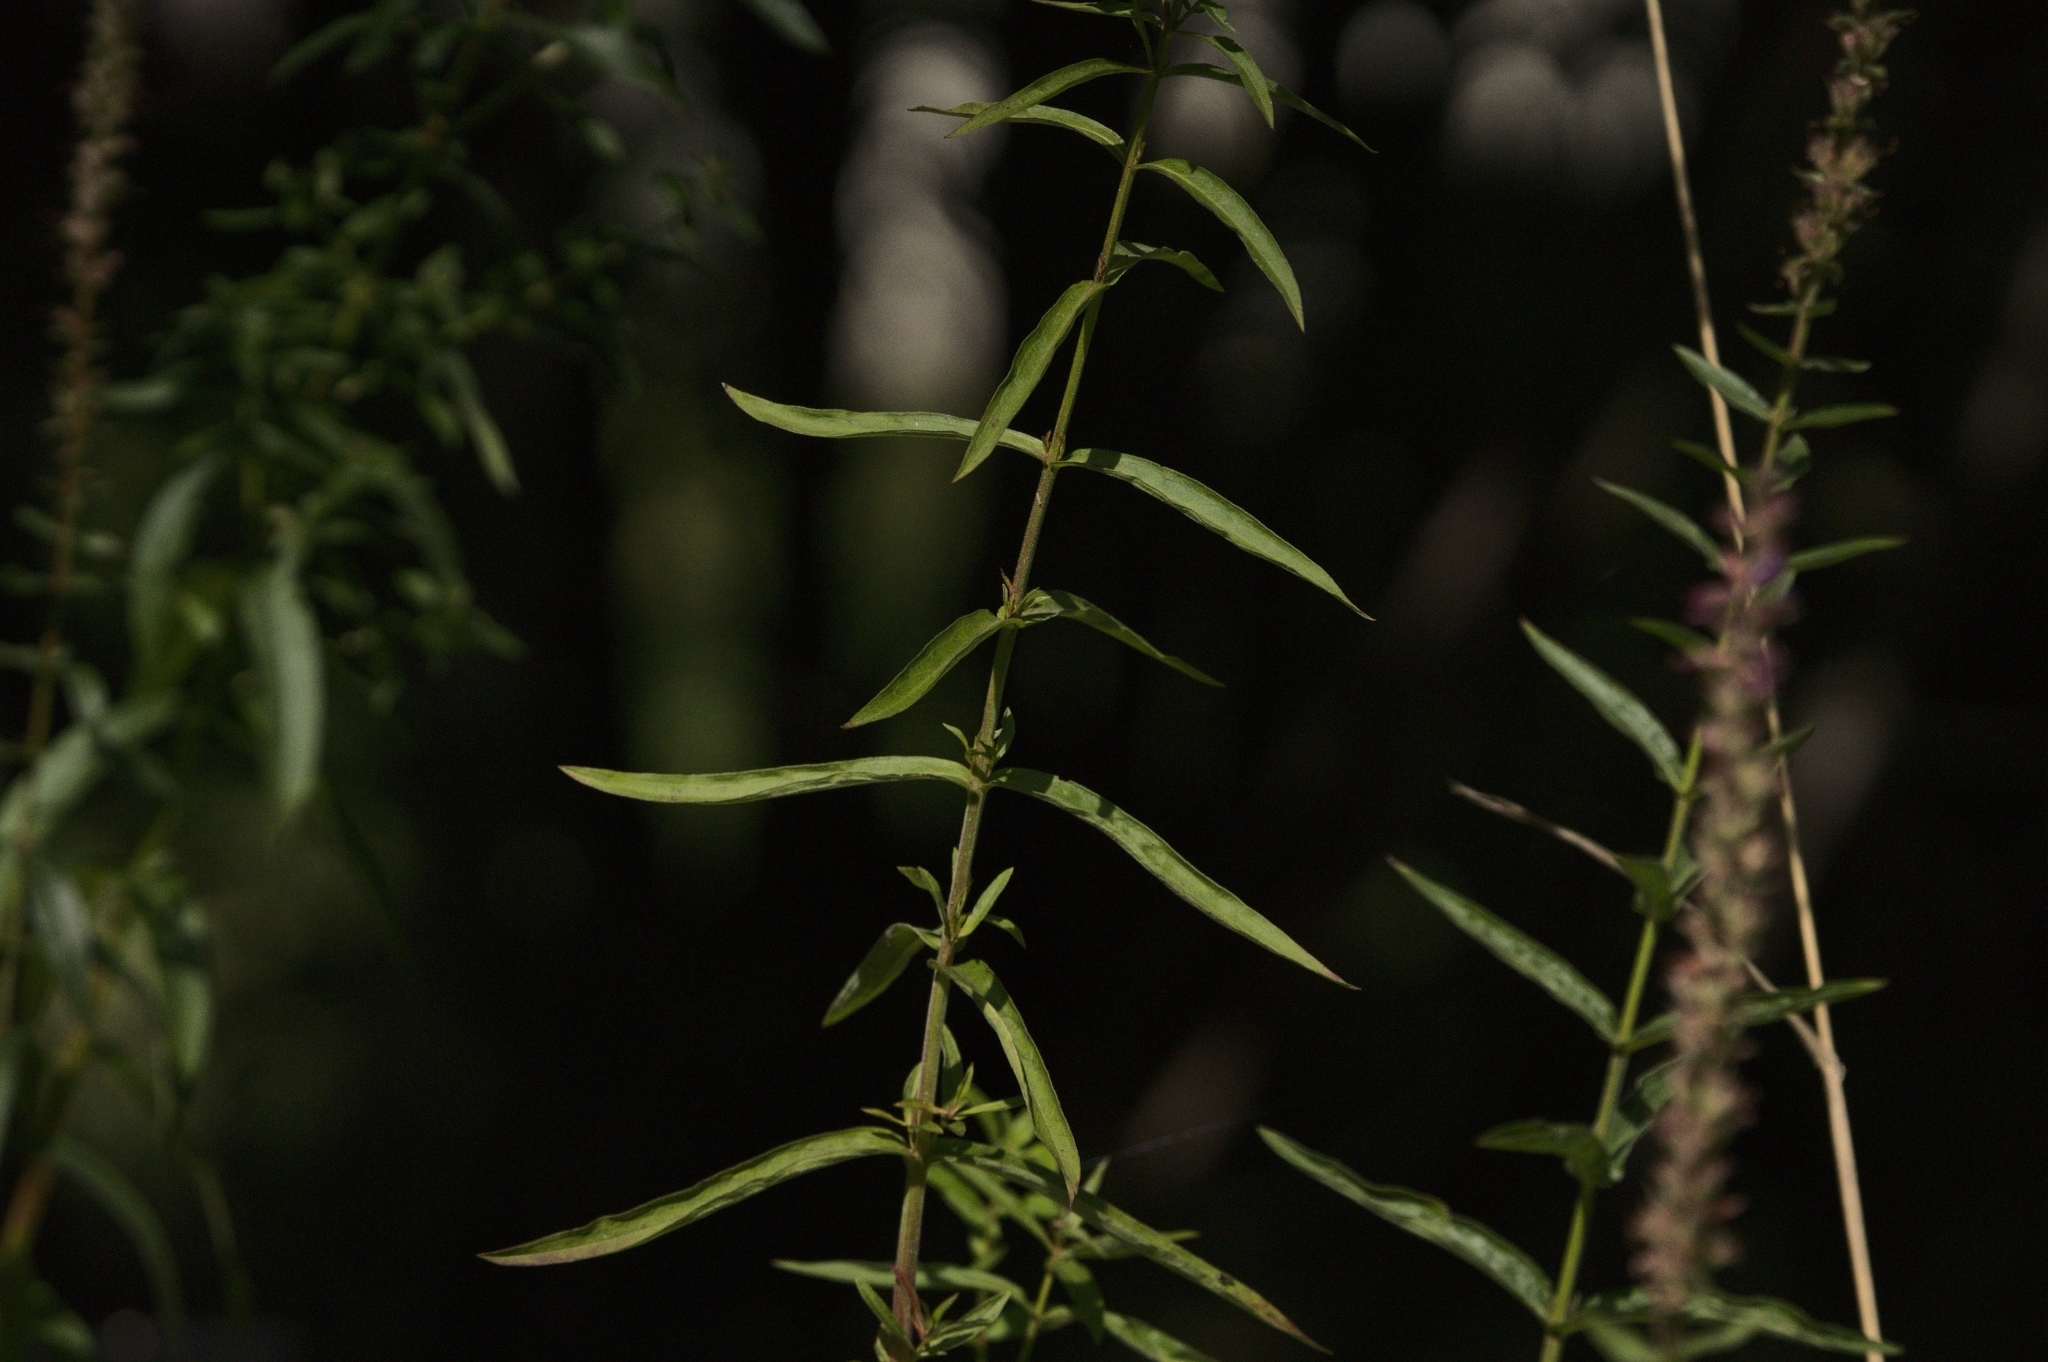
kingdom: Plantae
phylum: Tracheophyta
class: Magnoliopsida
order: Myrtales
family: Lythraceae
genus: Lythrum
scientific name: Lythrum salicaria
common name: Purple loosestrife
